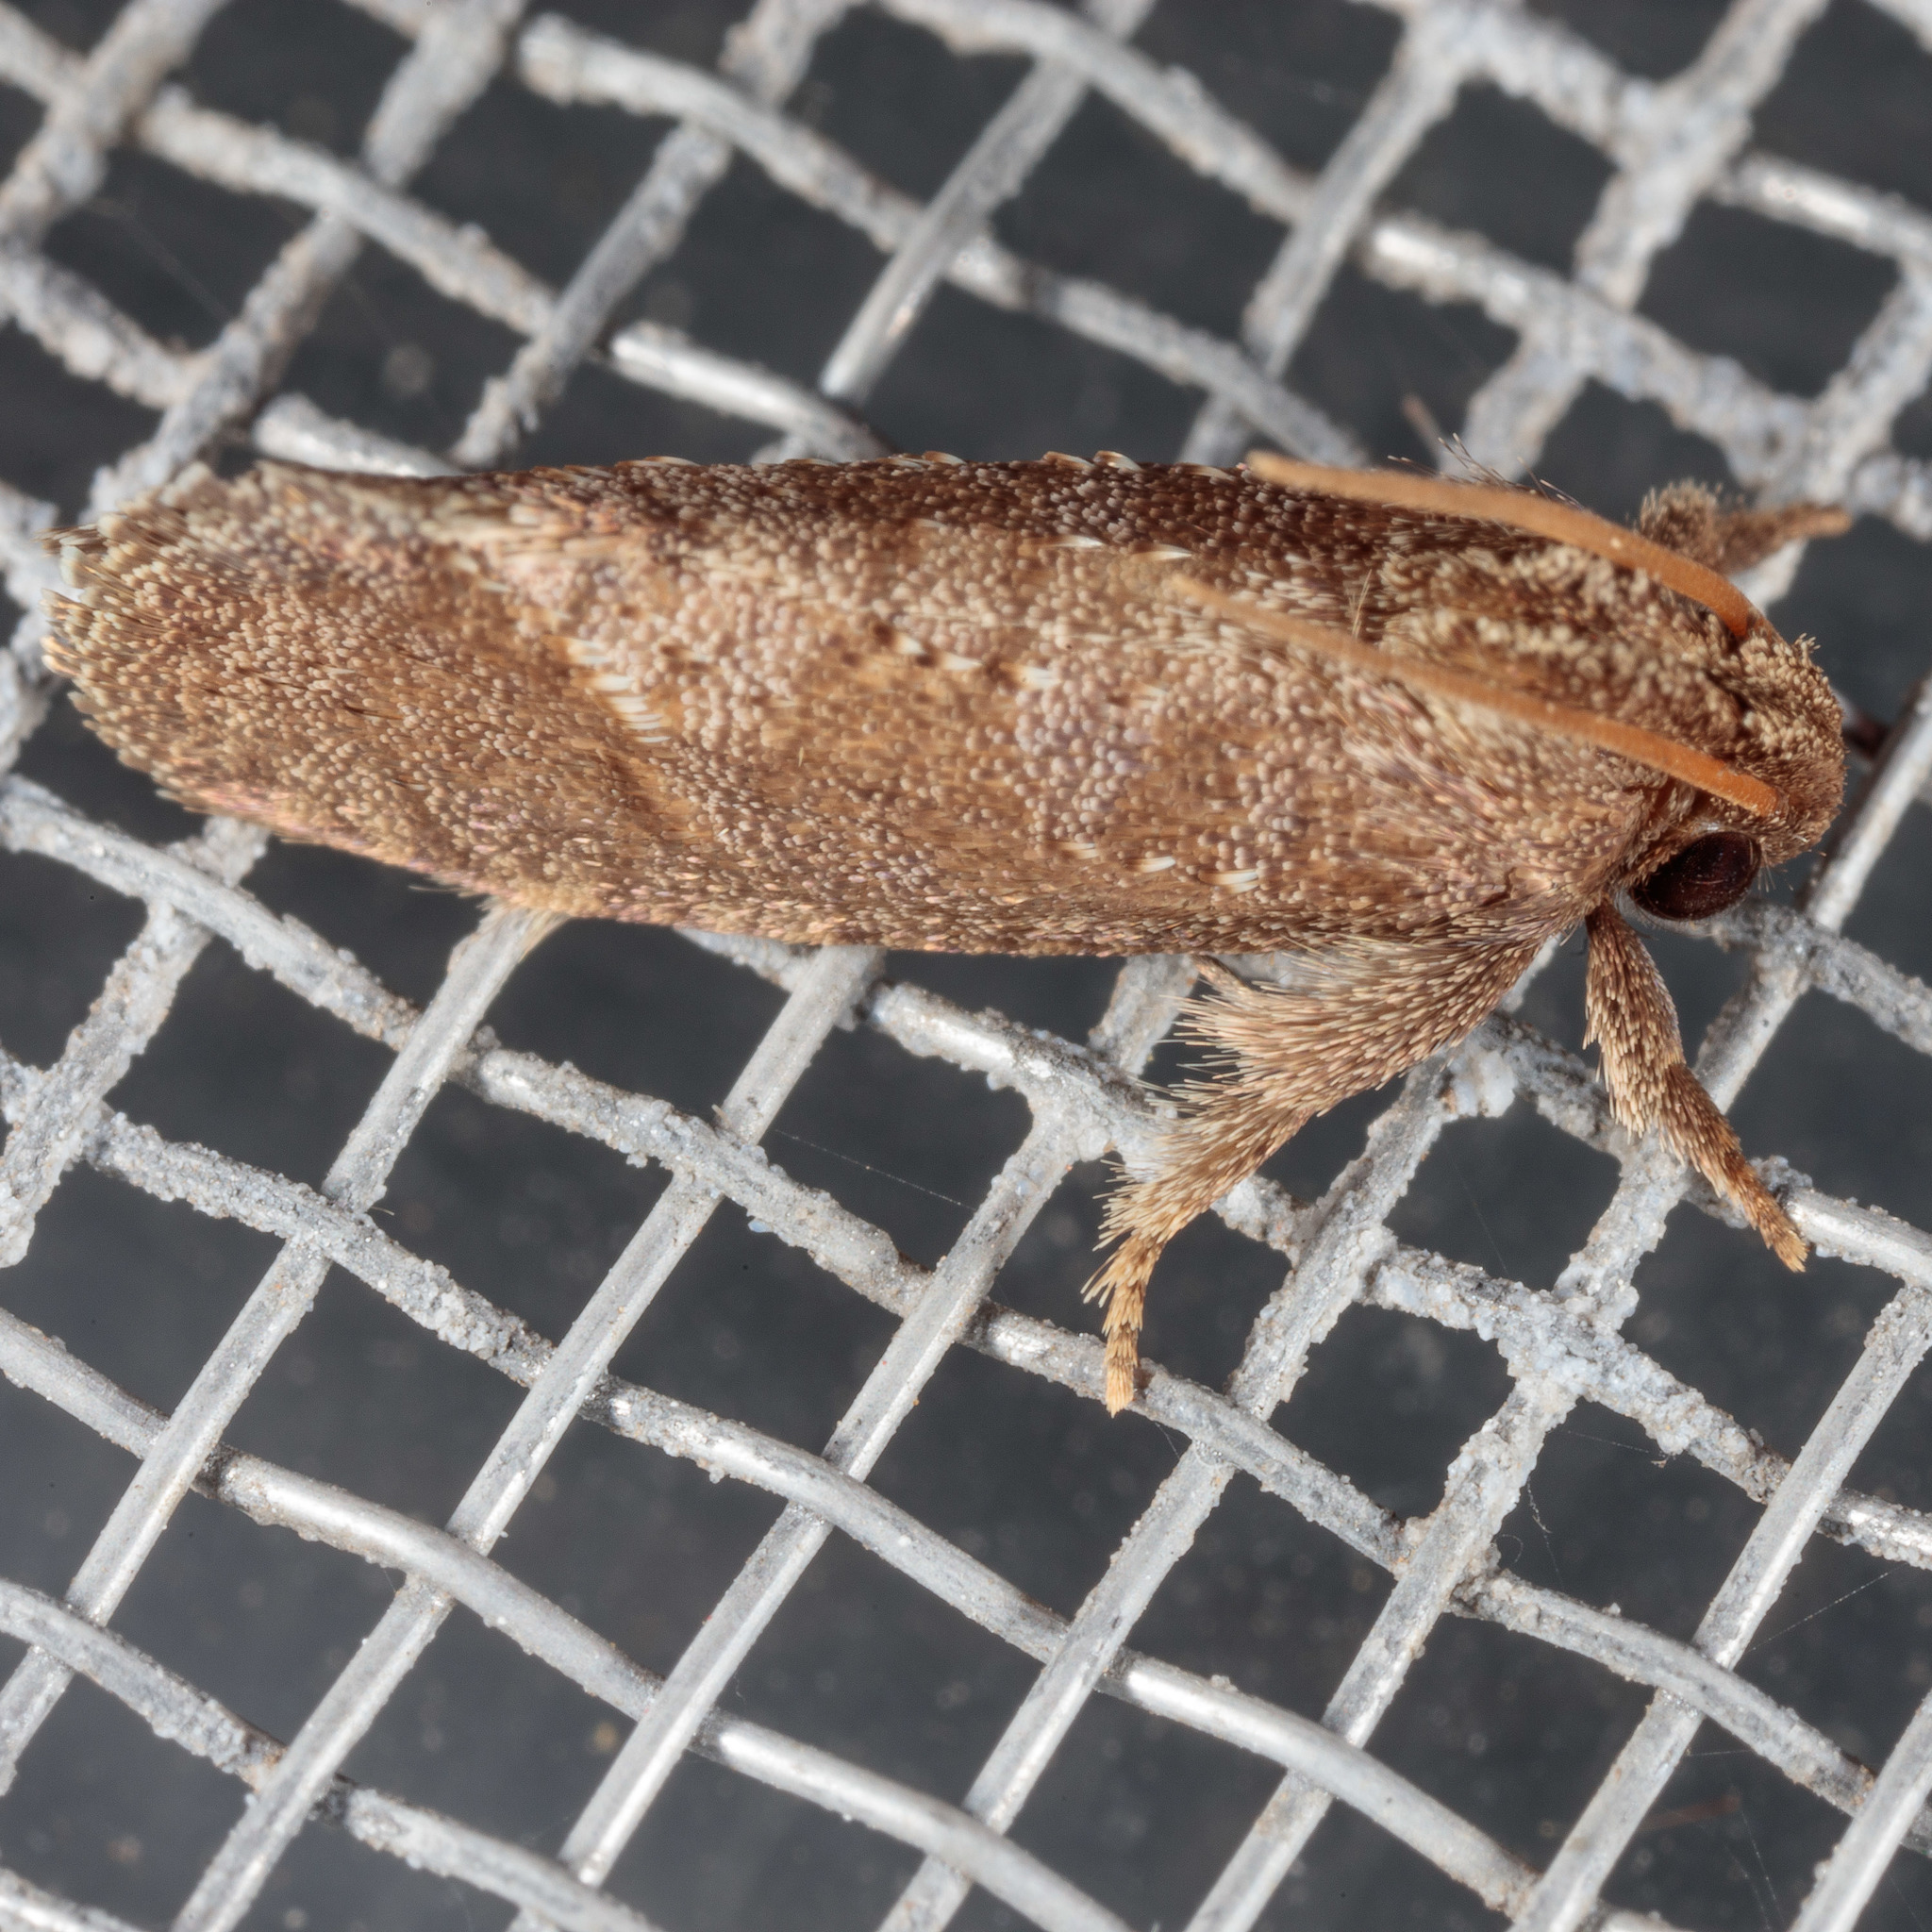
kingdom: Animalia
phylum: Arthropoda
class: Insecta
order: Lepidoptera
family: Tineidae
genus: Acrolophus
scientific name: Acrolophus texanella
